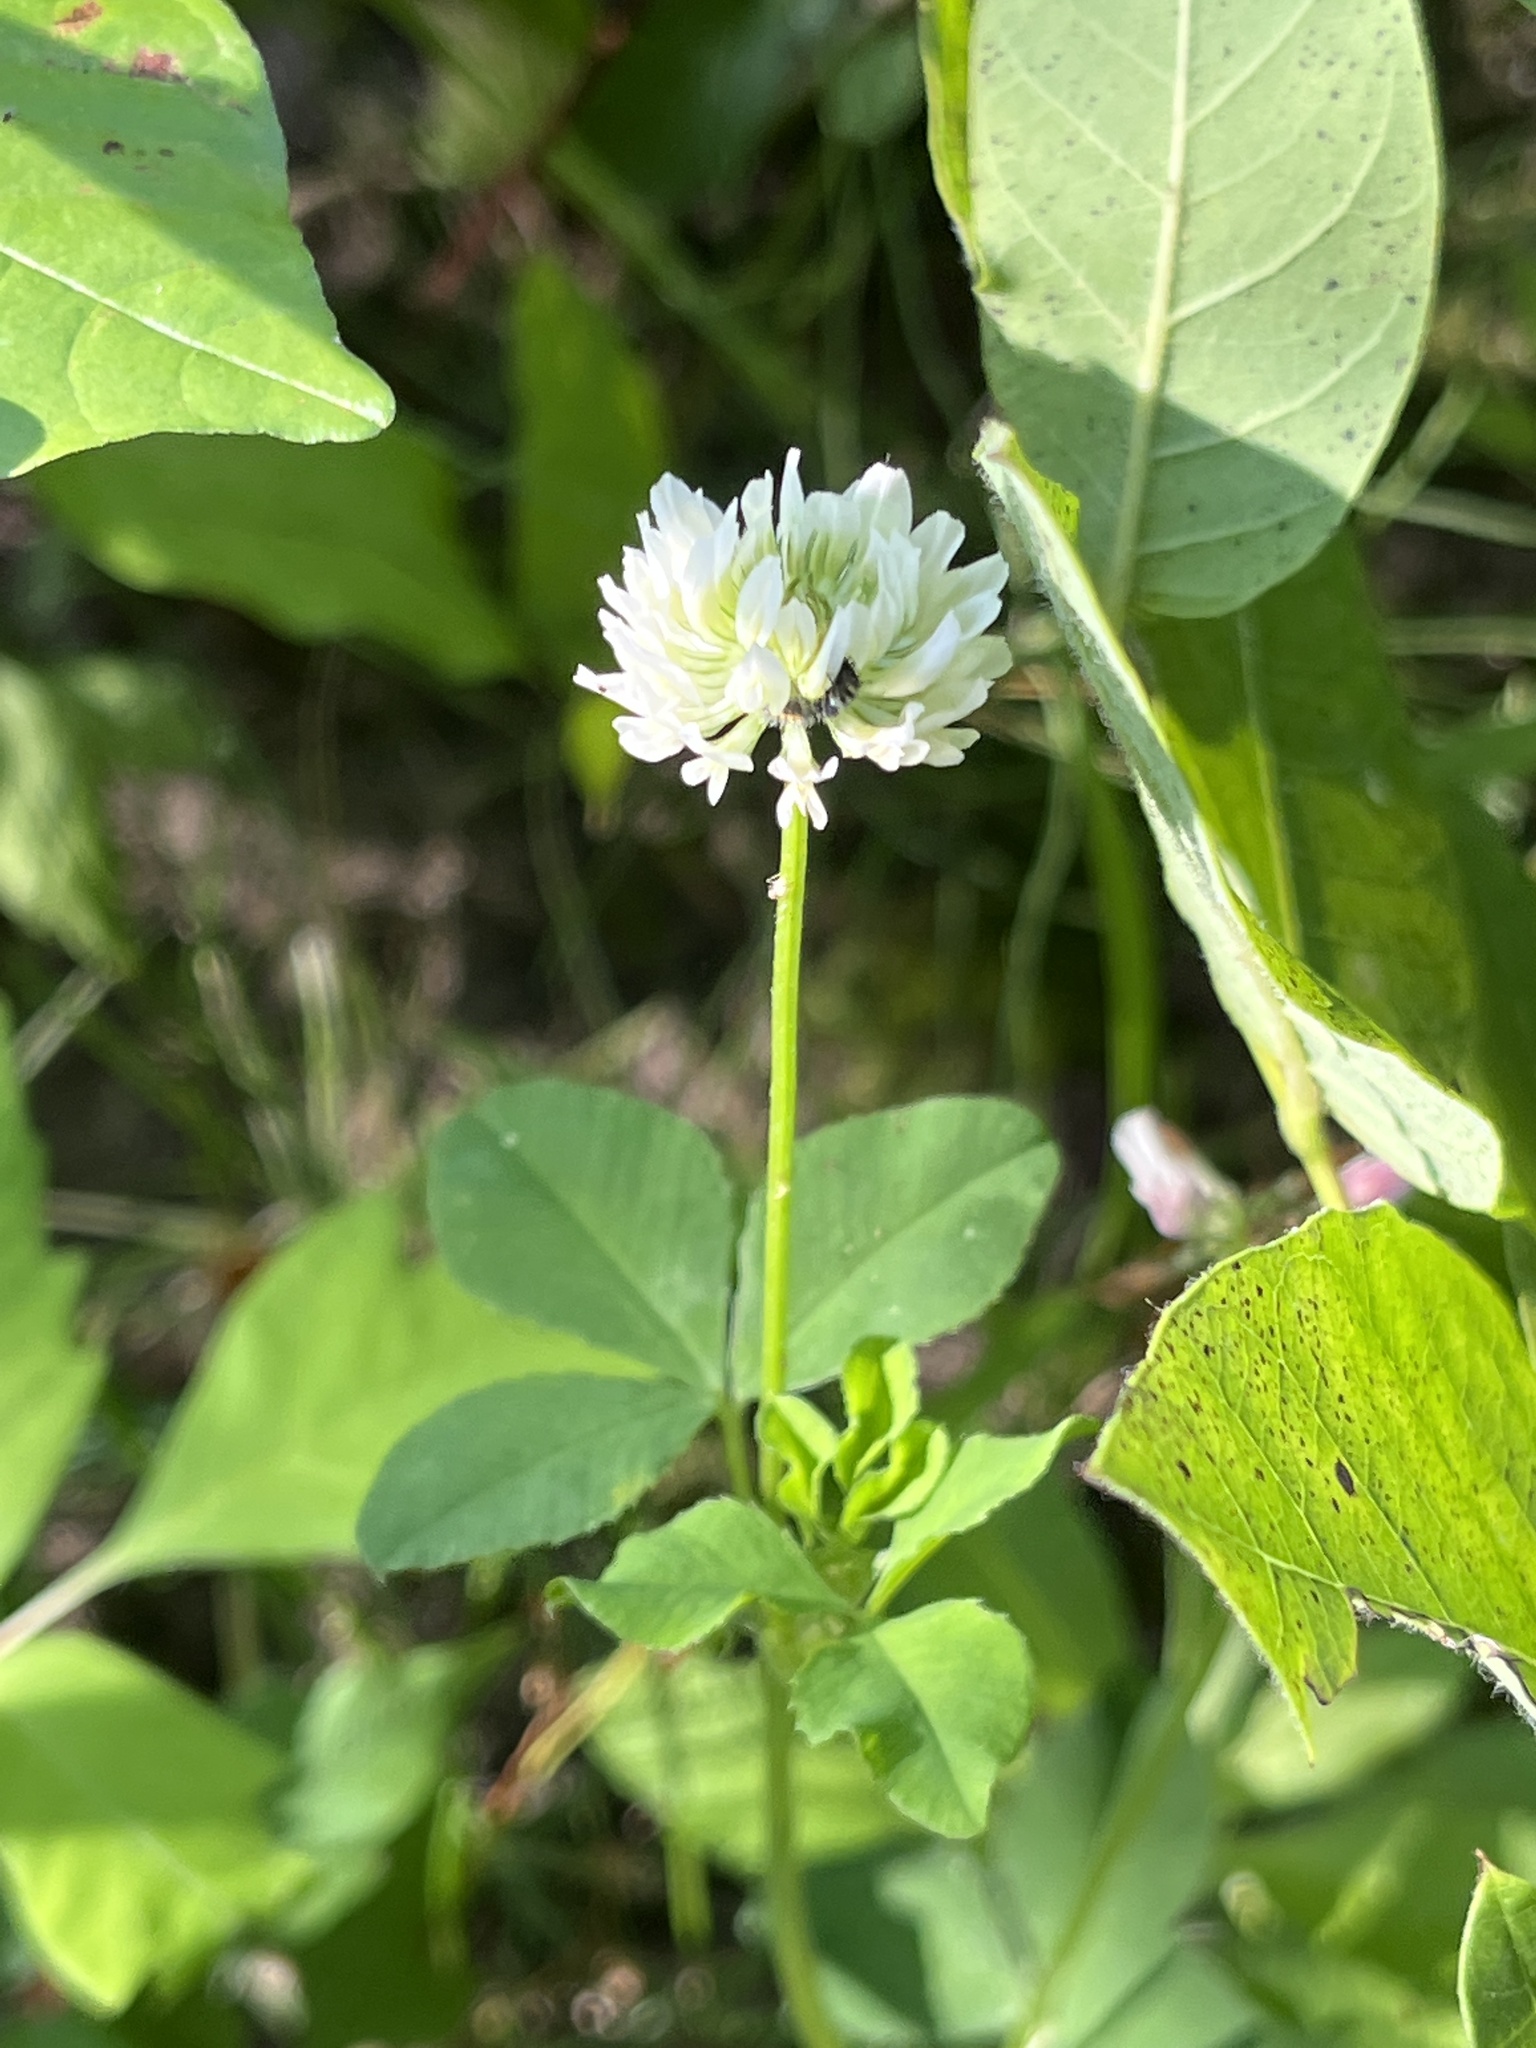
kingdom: Plantae
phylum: Tracheophyta
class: Magnoliopsida
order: Fabales
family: Fabaceae
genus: Trifolium
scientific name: Trifolium hybridum
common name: Alsike clover
